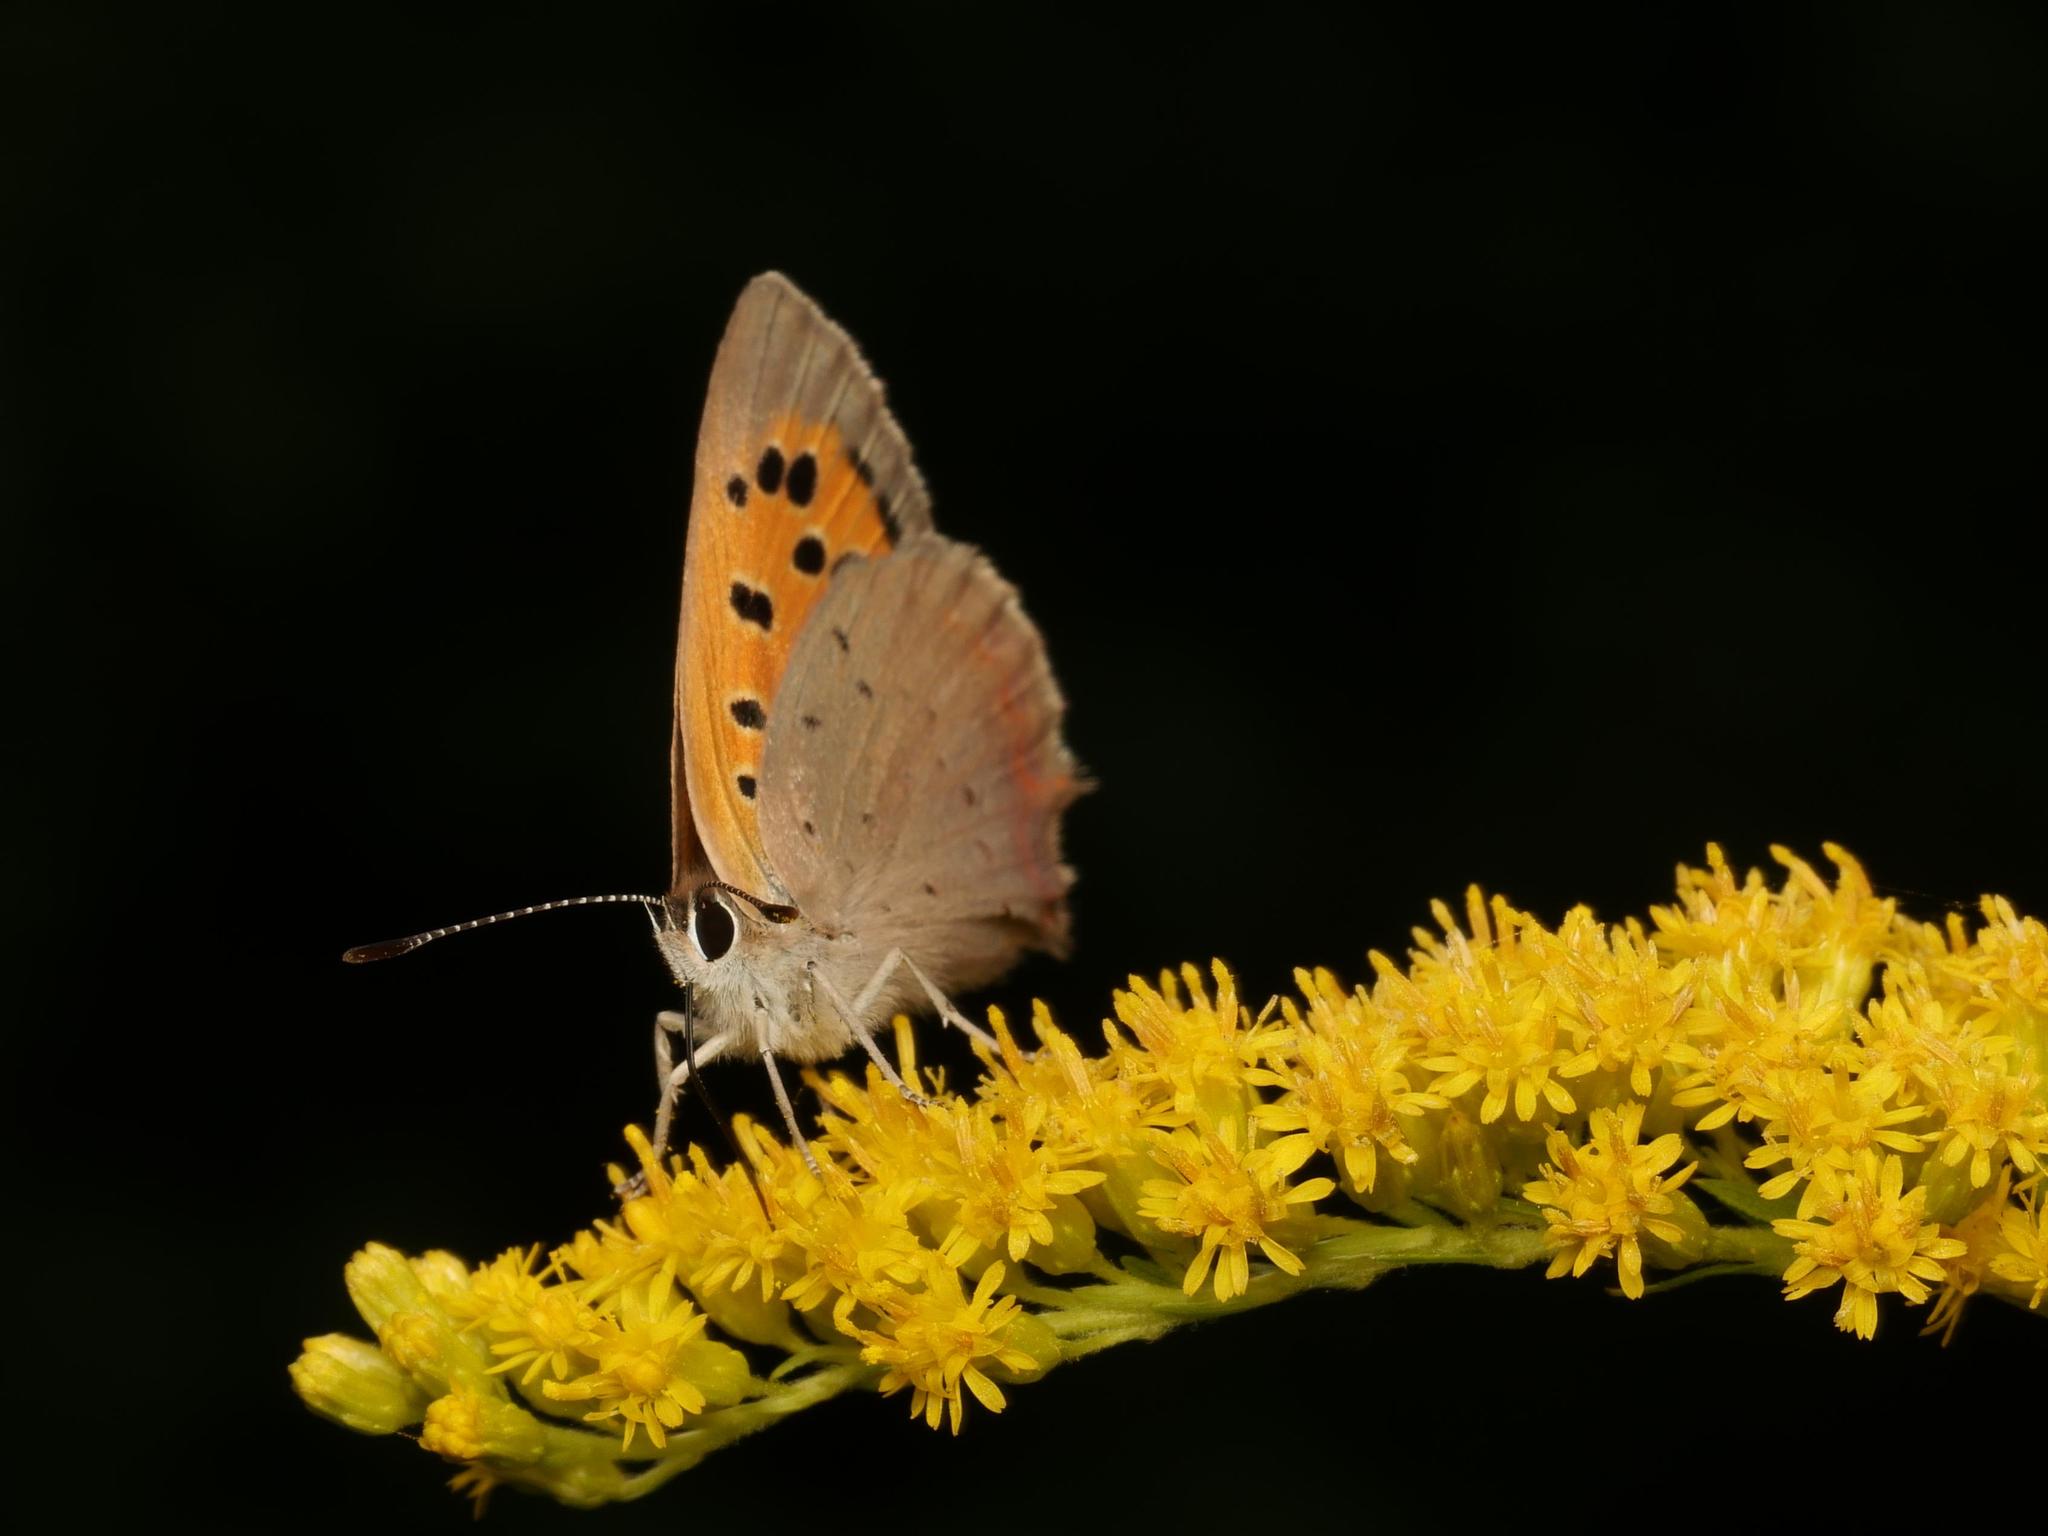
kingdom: Animalia
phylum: Arthropoda
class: Insecta
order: Lepidoptera
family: Lycaenidae
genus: Lycaena
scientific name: Lycaena phlaeas
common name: Small copper
